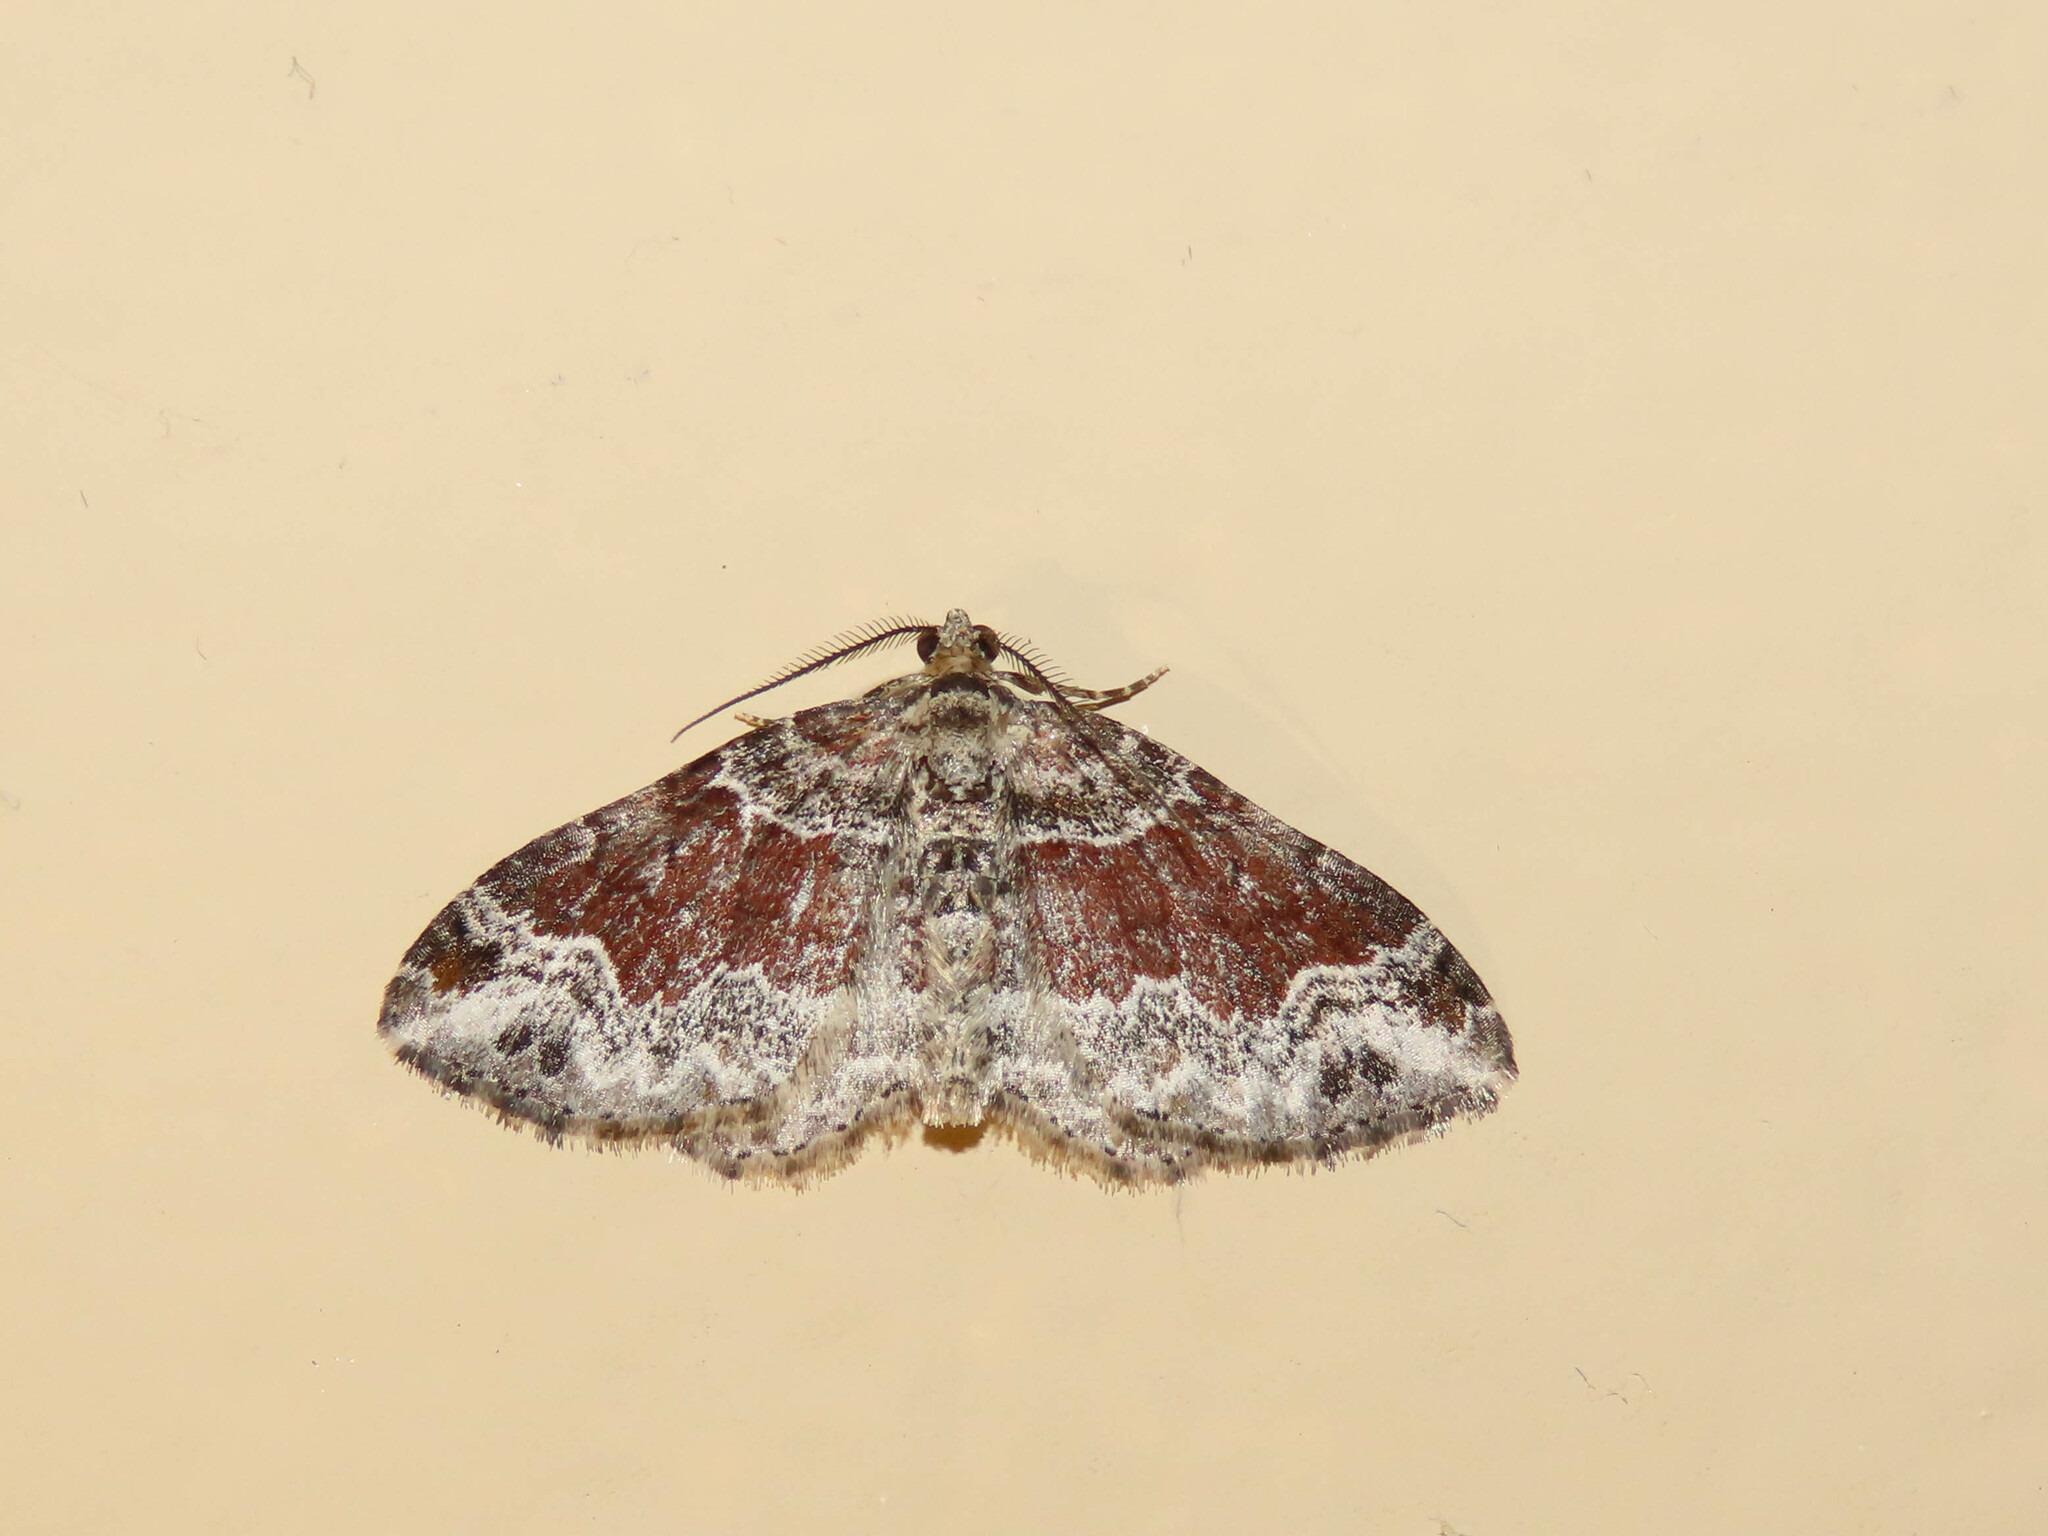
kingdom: Animalia
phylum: Arthropoda
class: Insecta
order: Lepidoptera
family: Geometridae
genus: Xanthorhoe
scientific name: Xanthorhoe ferrugata
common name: Dark-barred twin-spot carpet
